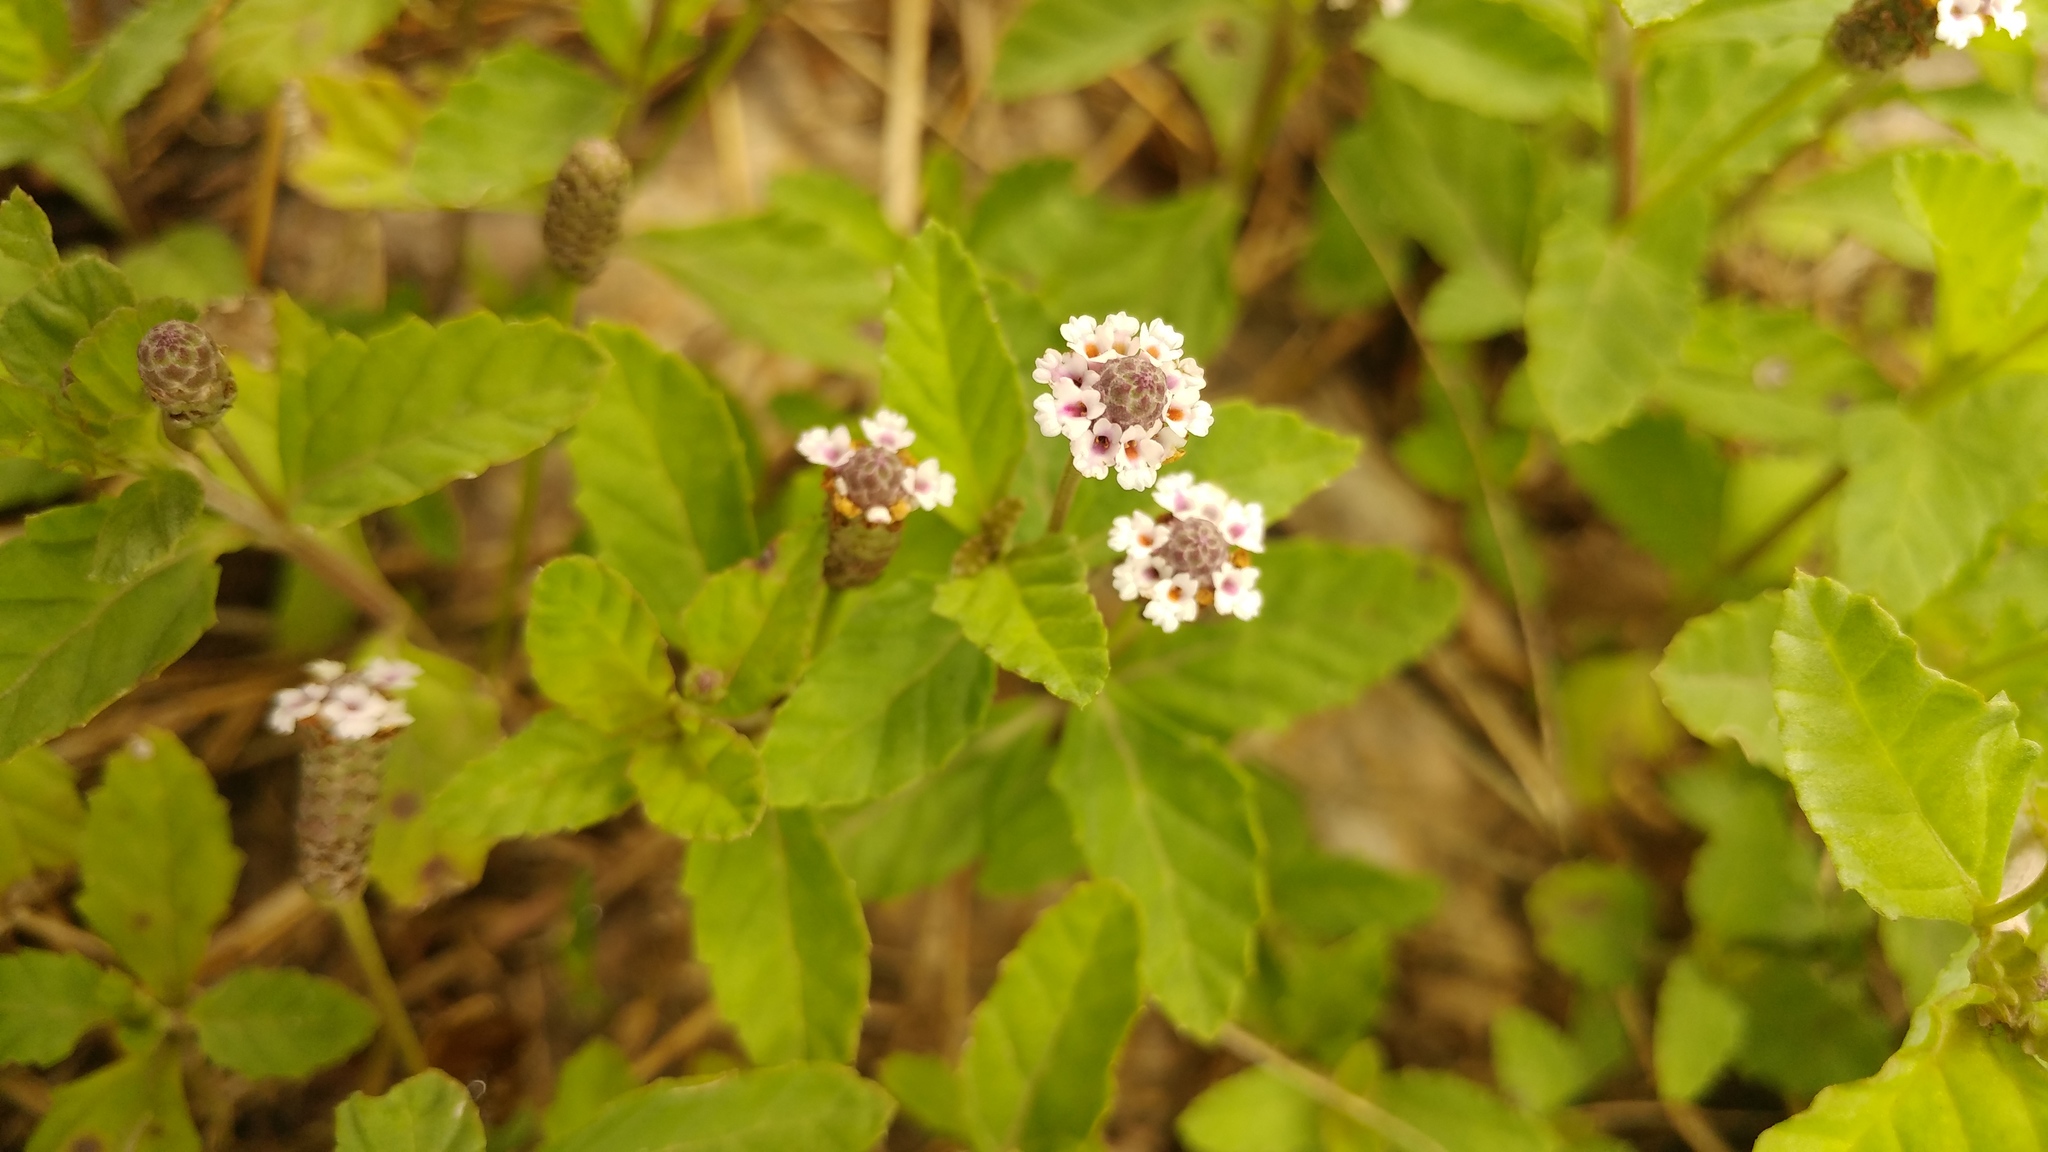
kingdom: Plantae
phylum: Tracheophyta
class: Magnoliopsida
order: Lamiales
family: Verbenaceae
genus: Phyla
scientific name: Phyla nodiflora
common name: Frogfruit
